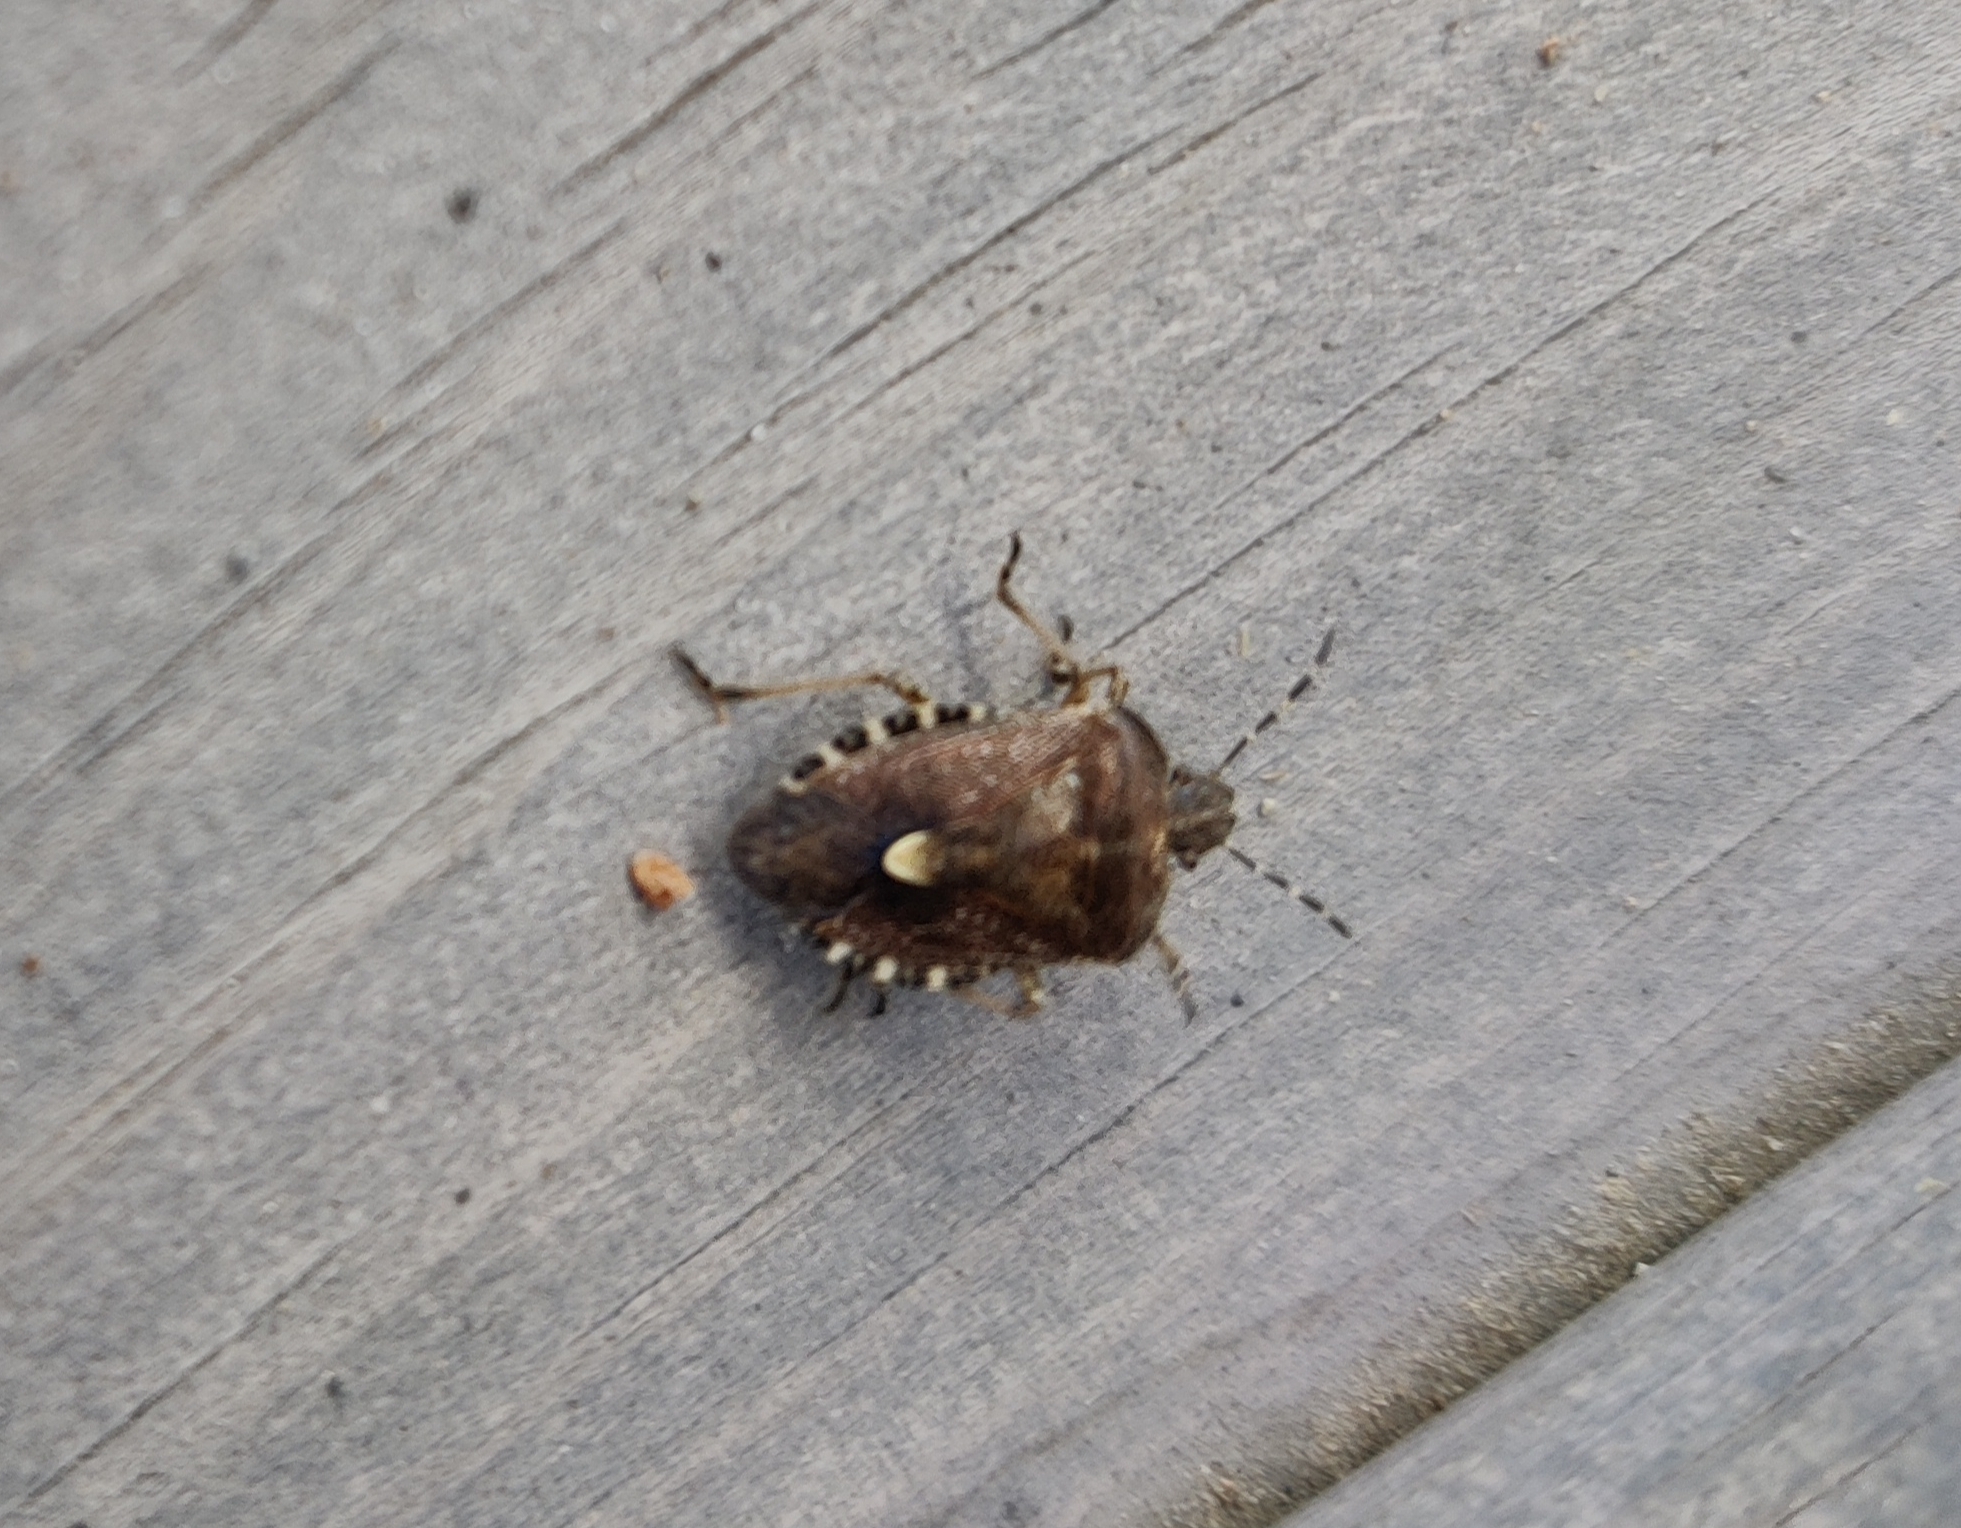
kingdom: Animalia
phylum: Arthropoda
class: Insecta
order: Hemiptera
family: Pentatomidae
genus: Dolycoris
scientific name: Dolycoris baccarum
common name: Sloe bug
